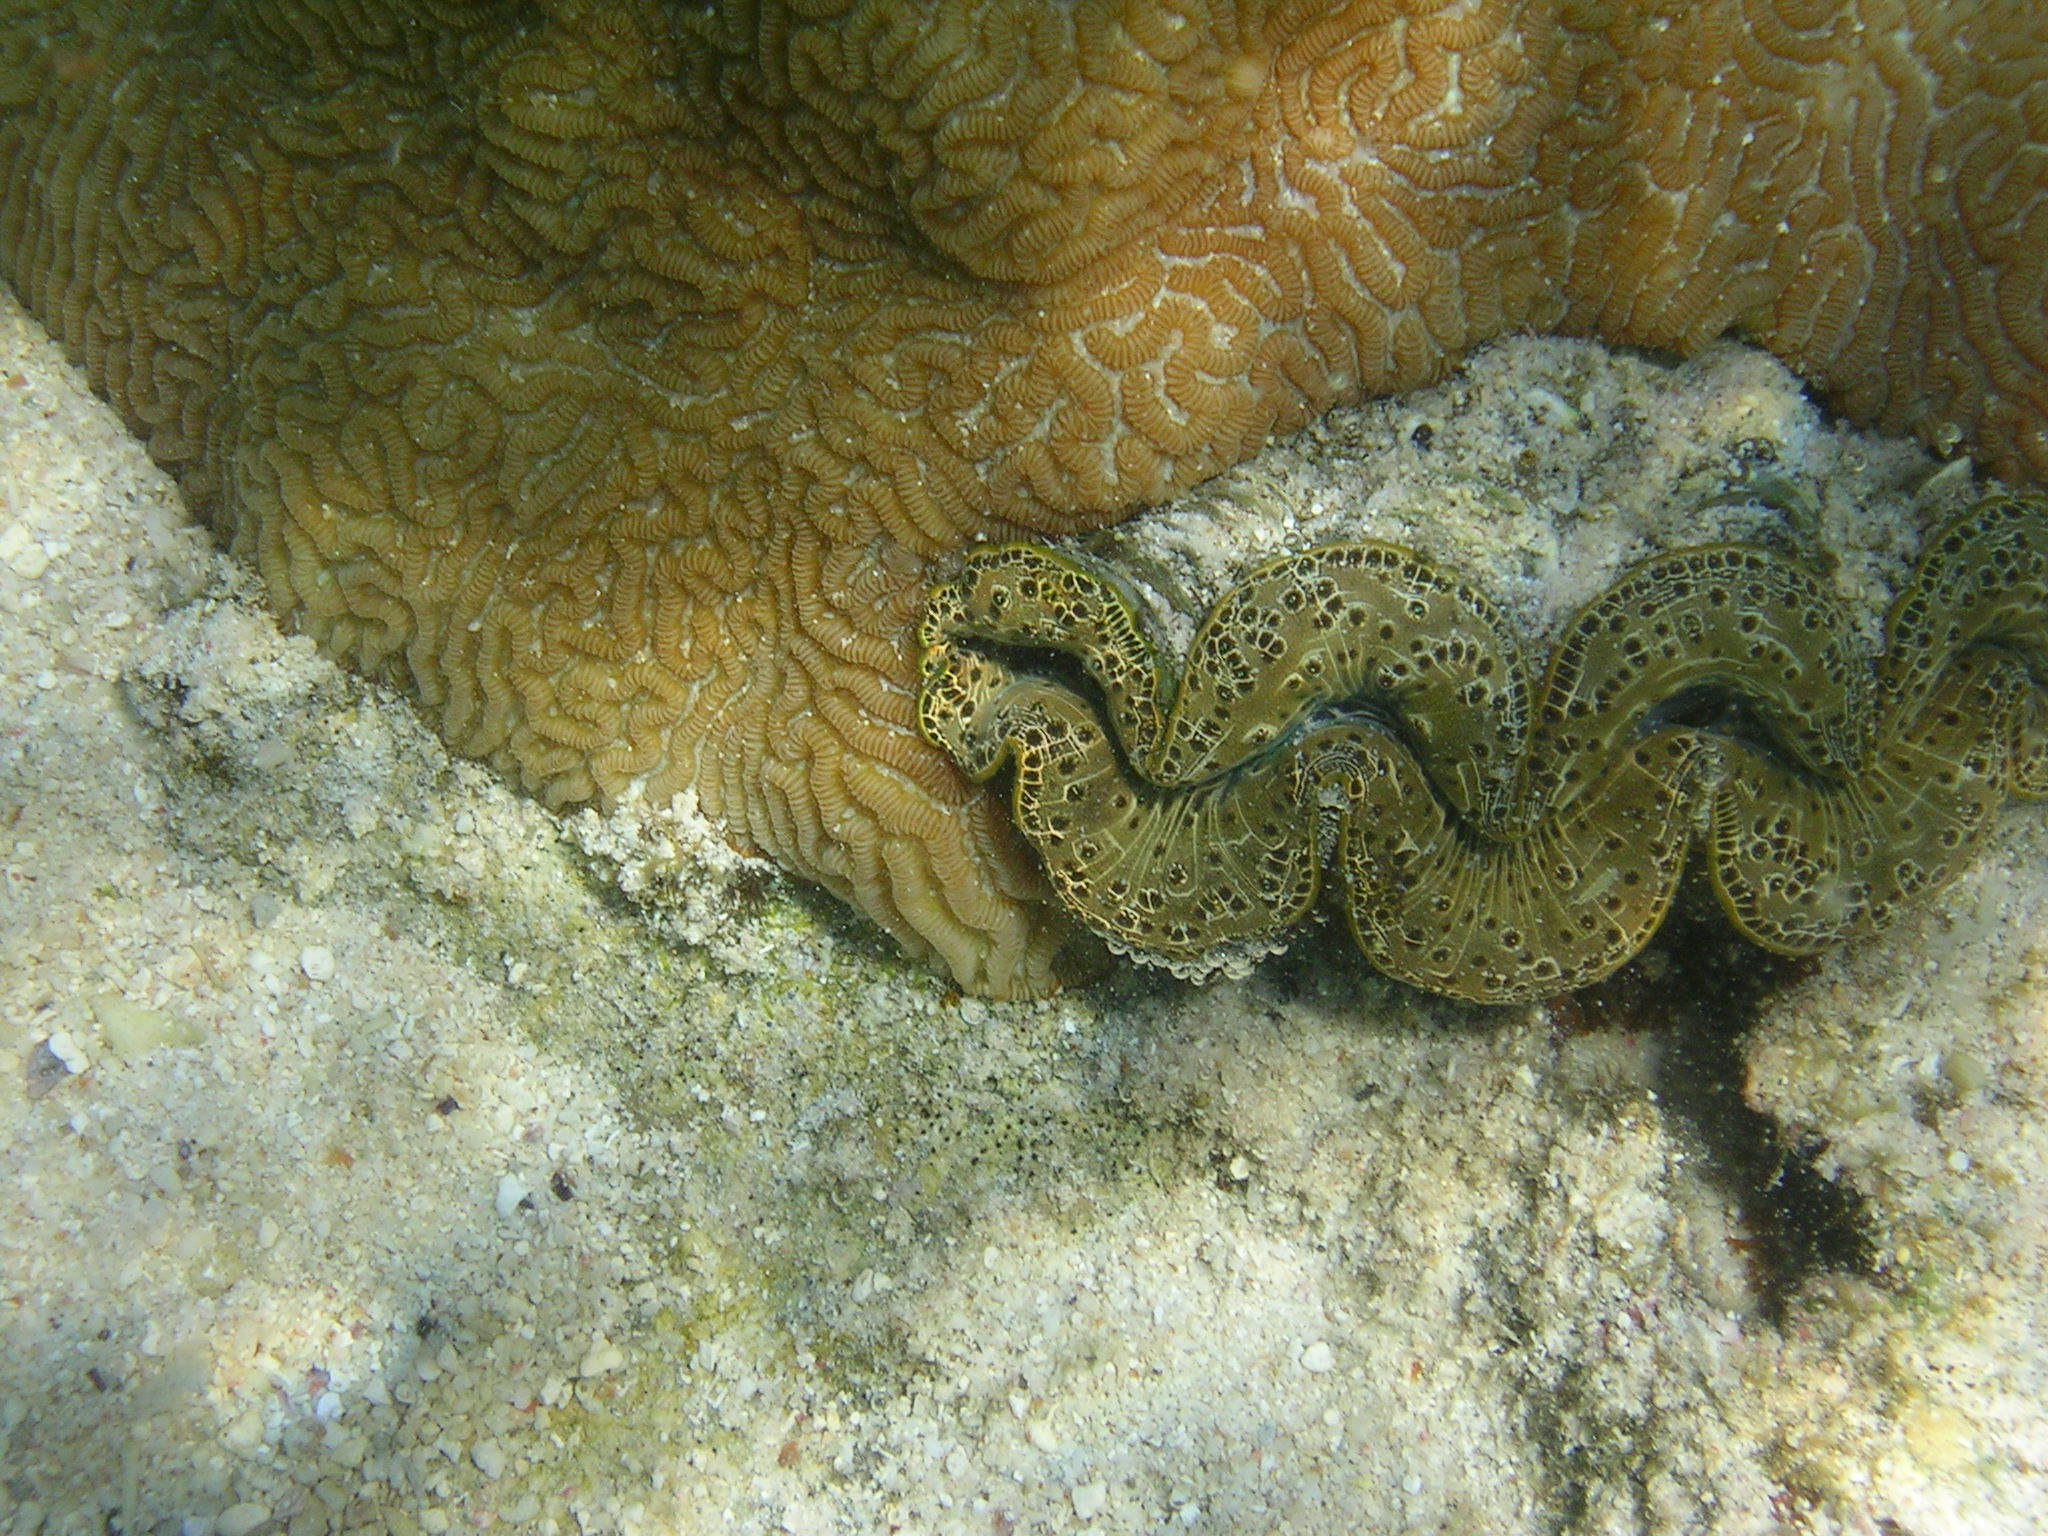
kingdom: Animalia
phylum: Mollusca
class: Bivalvia
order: Cardiida
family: Cardiidae
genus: Tridacna
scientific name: Tridacna maxima
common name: Small giant clam
